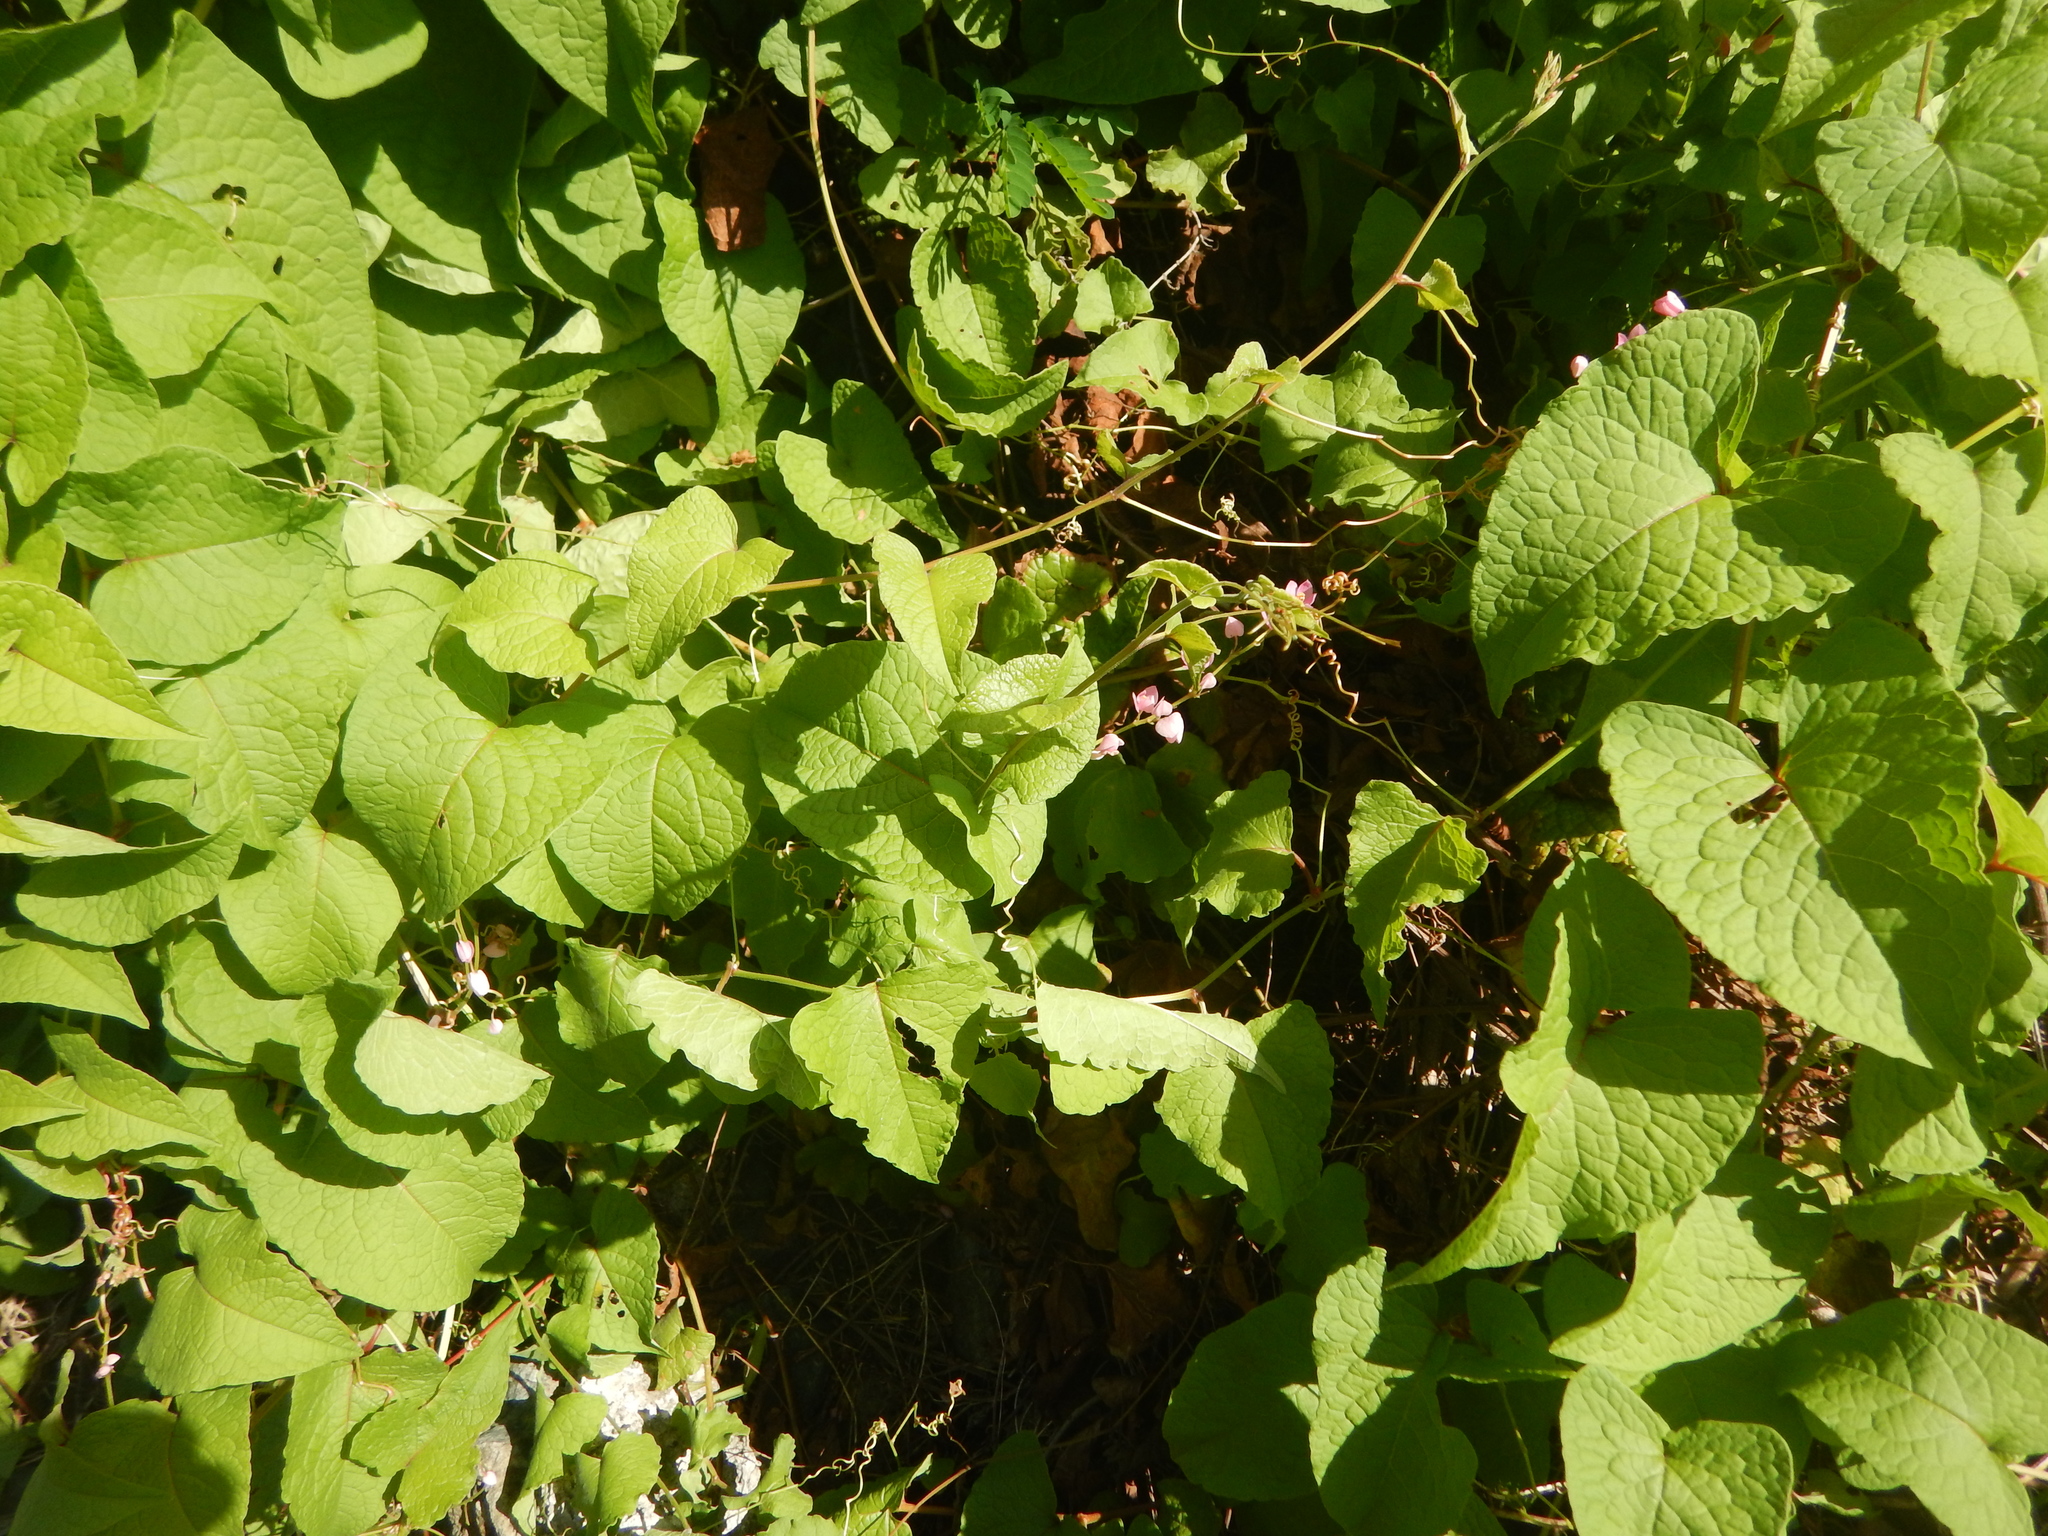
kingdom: Plantae
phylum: Tracheophyta
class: Magnoliopsida
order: Caryophyllales
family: Polygonaceae
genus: Antigonon
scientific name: Antigonon leptopus
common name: Coral vine
